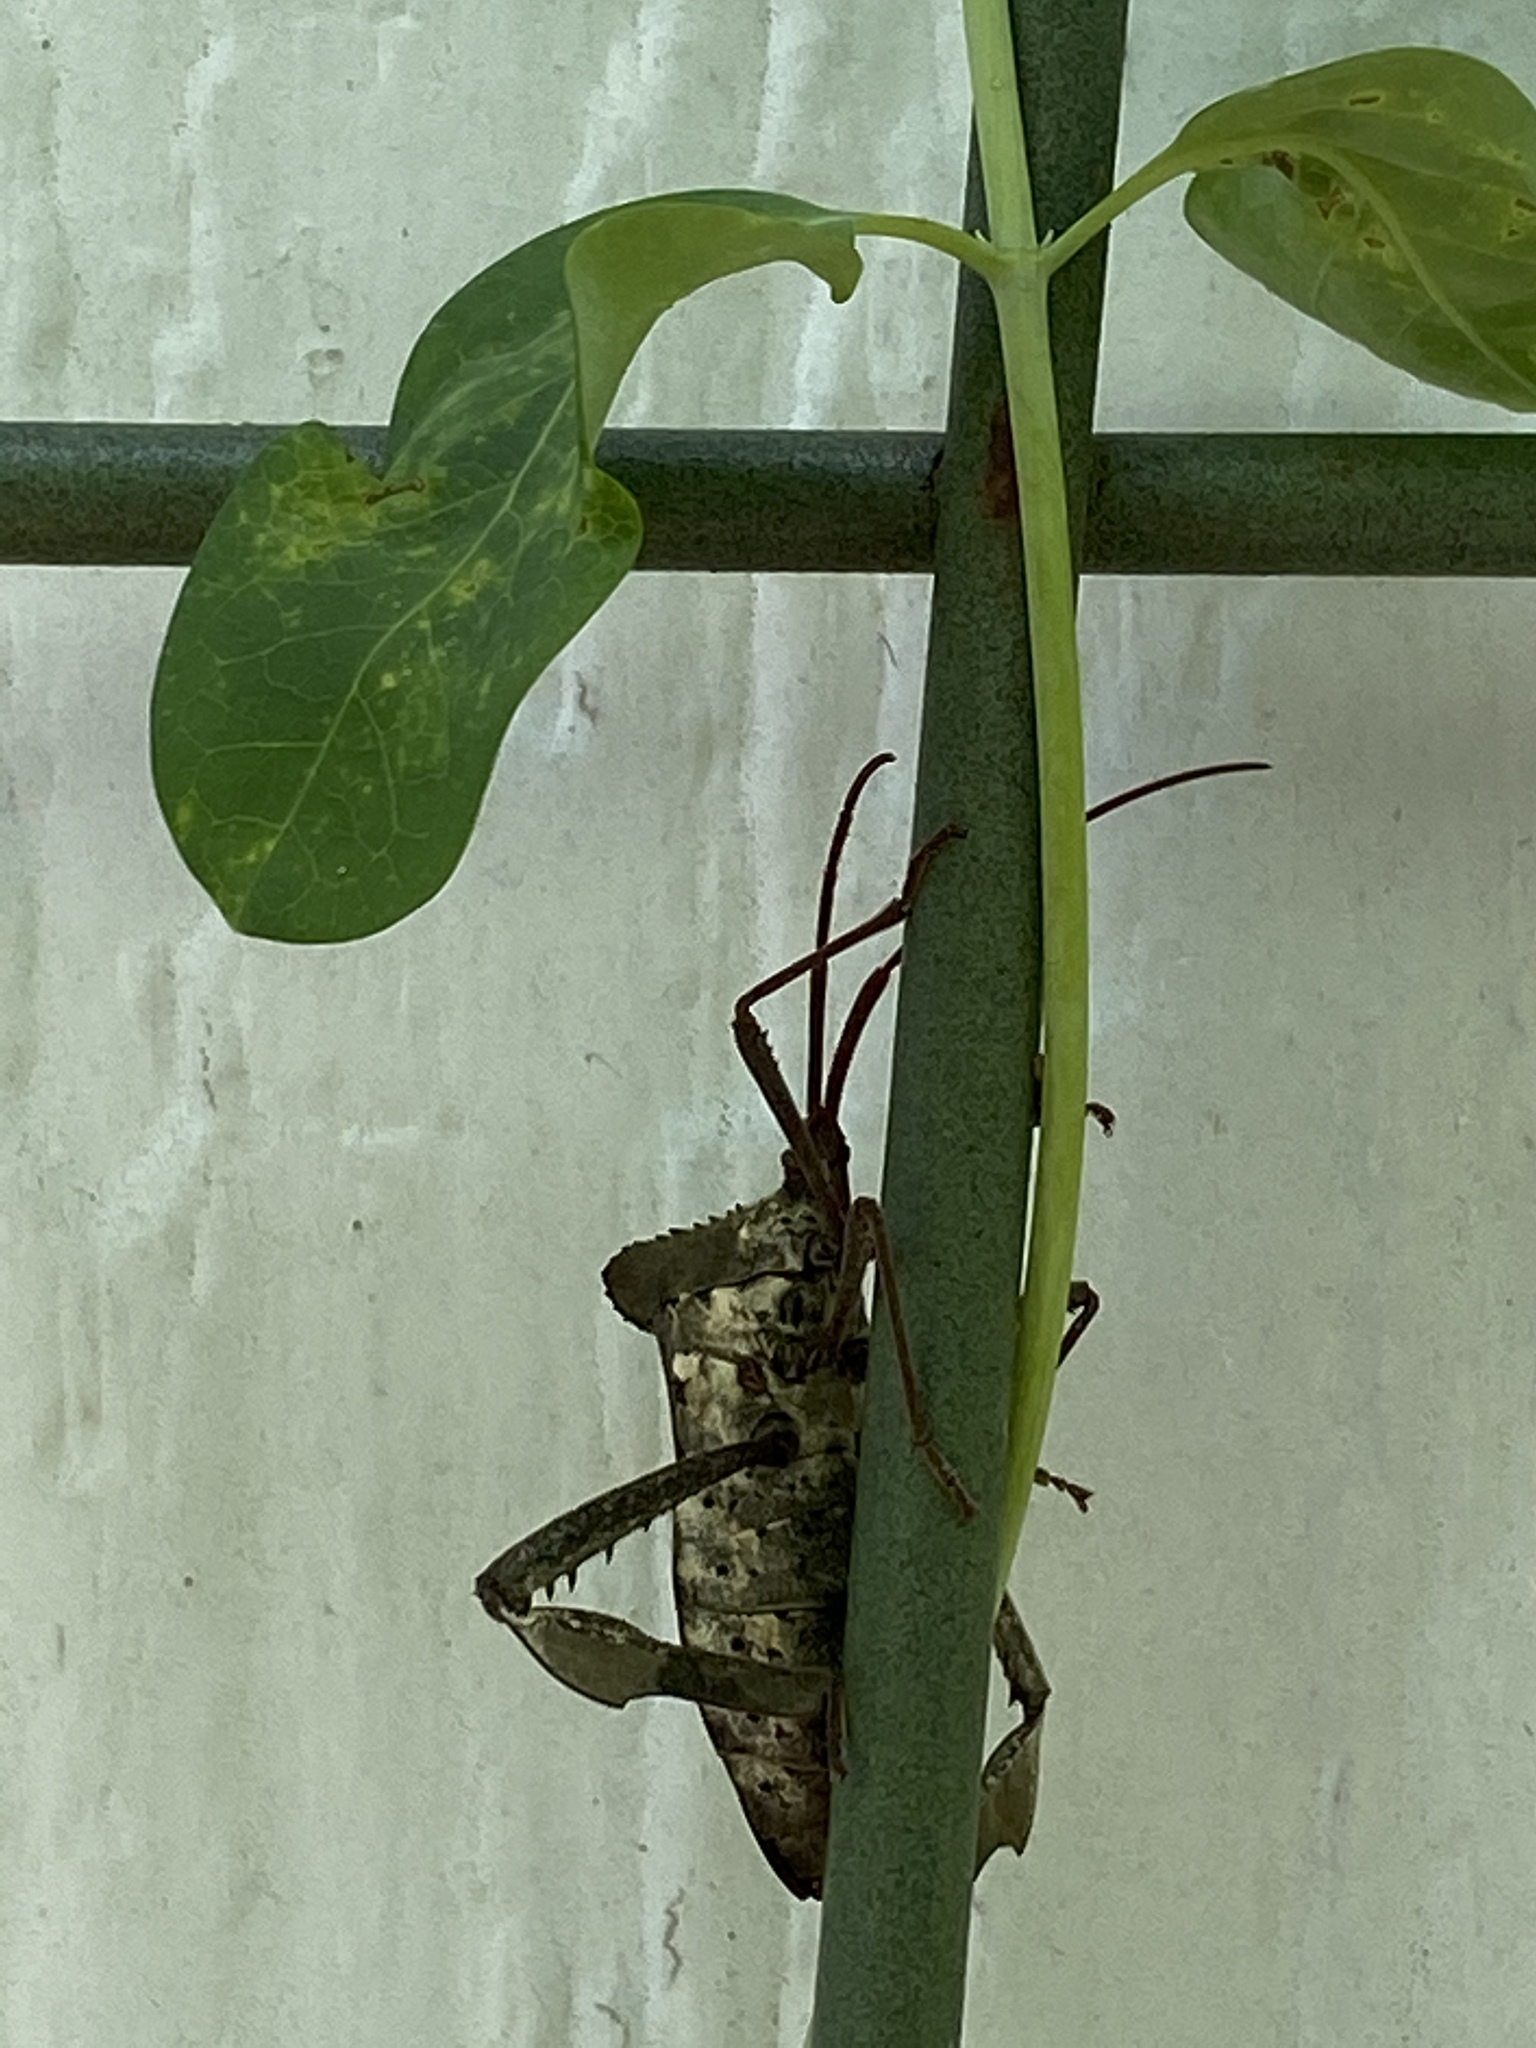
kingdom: Animalia
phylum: Arthropoda
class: Insecta
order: Hemiptera
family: Coreidae
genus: Acanthocephala
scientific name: Acanthocephala declivis
